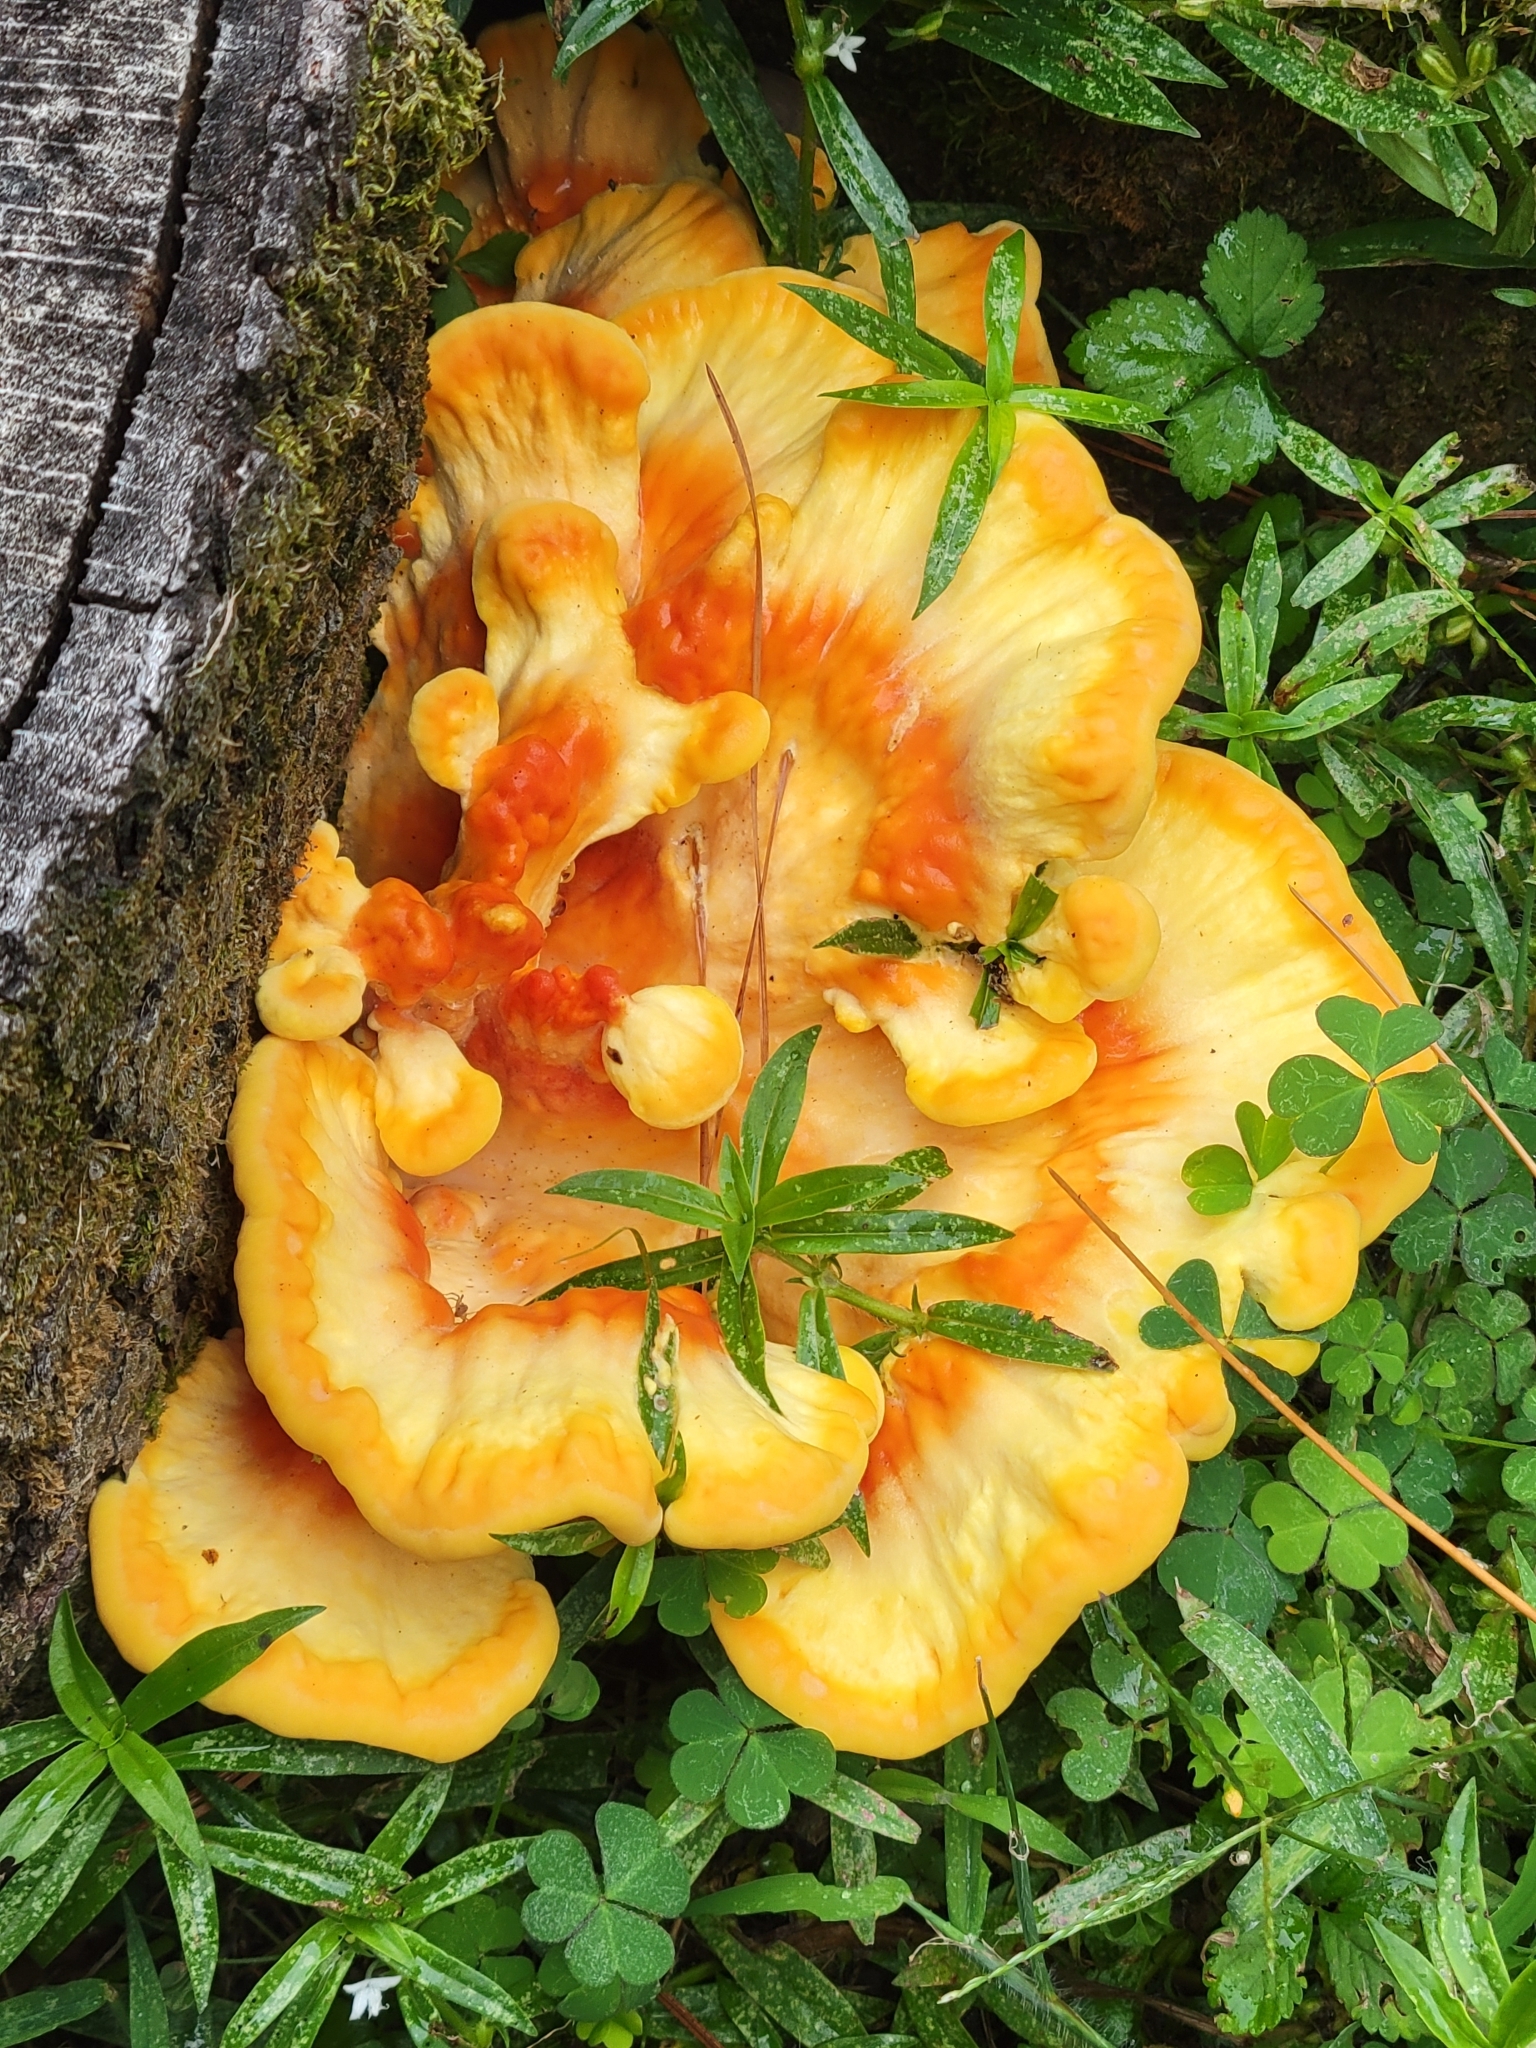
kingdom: Fungi
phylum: Basidiomycota
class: Agaricomycetes
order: Polyporales
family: Laetiporaceae
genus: Laetiporus
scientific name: Laetiporus sulphureus
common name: Chicken of the woods
